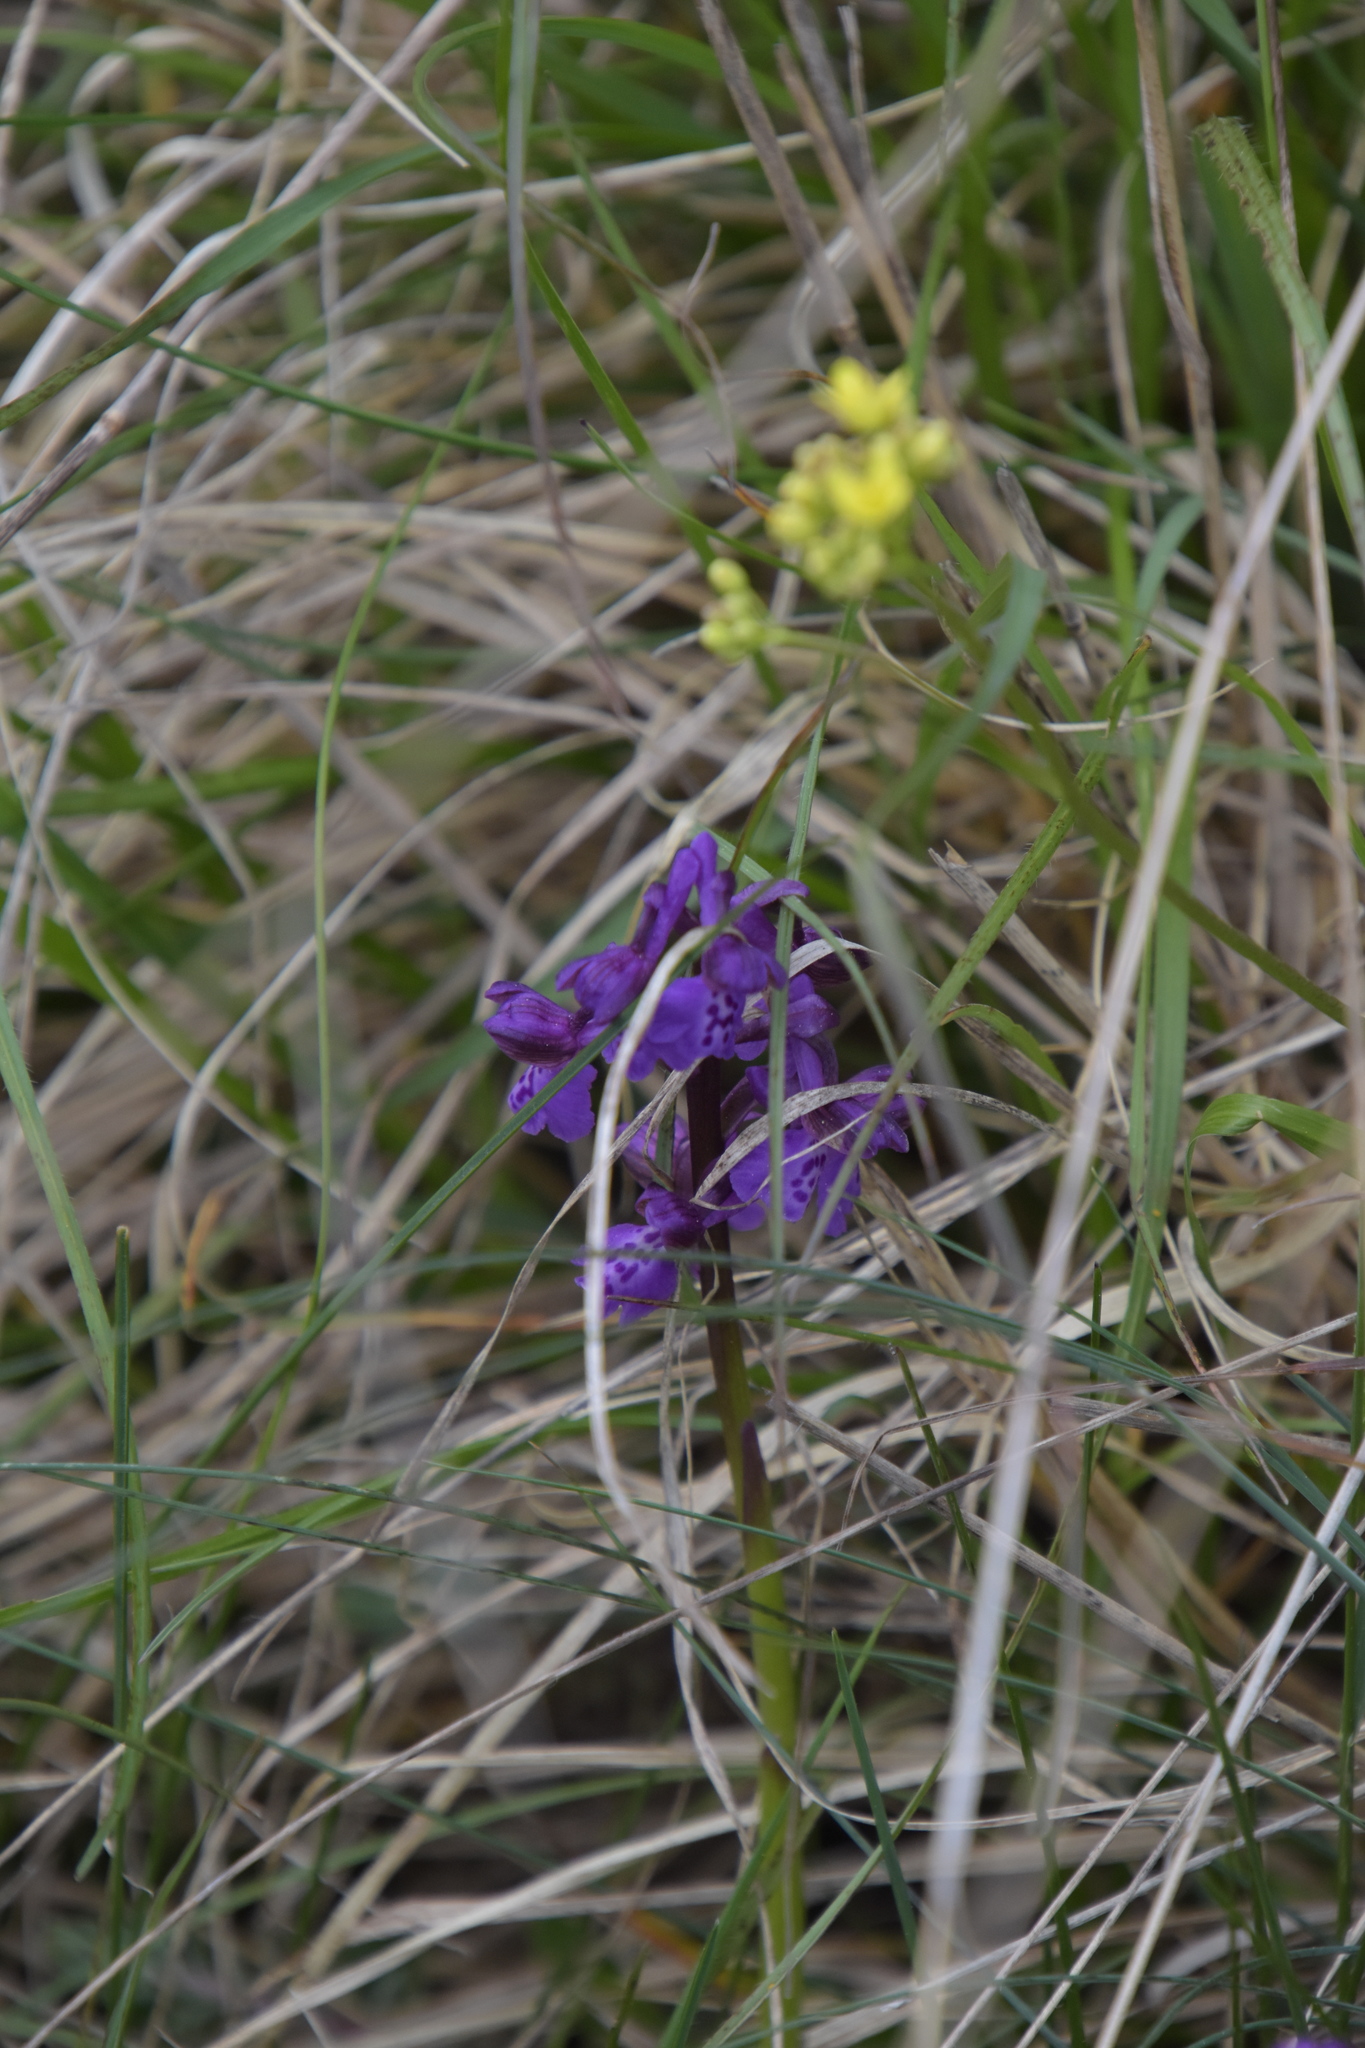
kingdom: Plantae
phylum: Tracheophyta
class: Liliopsida
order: Asparagales
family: Orchidaceae
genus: Anacamptis
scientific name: Anacamptis morio
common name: Green-winged orchid
